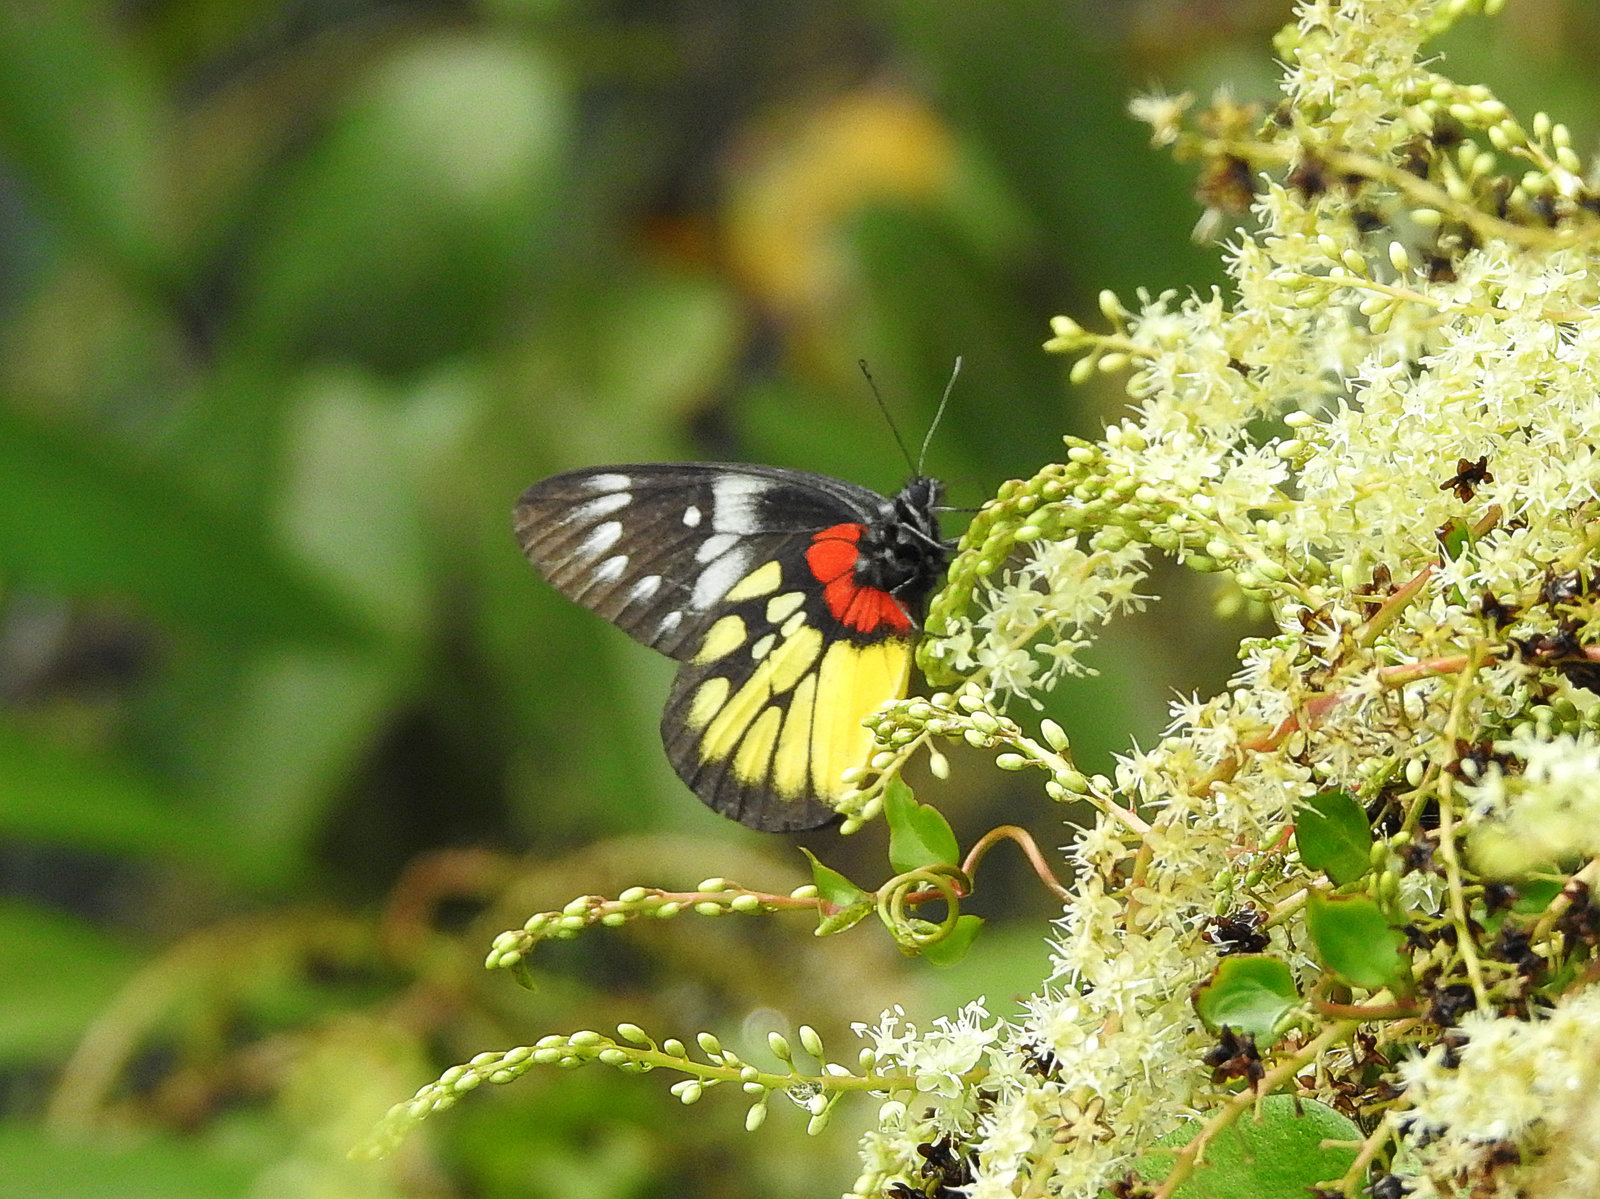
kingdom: Animalia
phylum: Arthropoda
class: Insecta
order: Lepidoptera
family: Pieridae
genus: Delias
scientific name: Delias pasithoe
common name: Red-base jezebel
